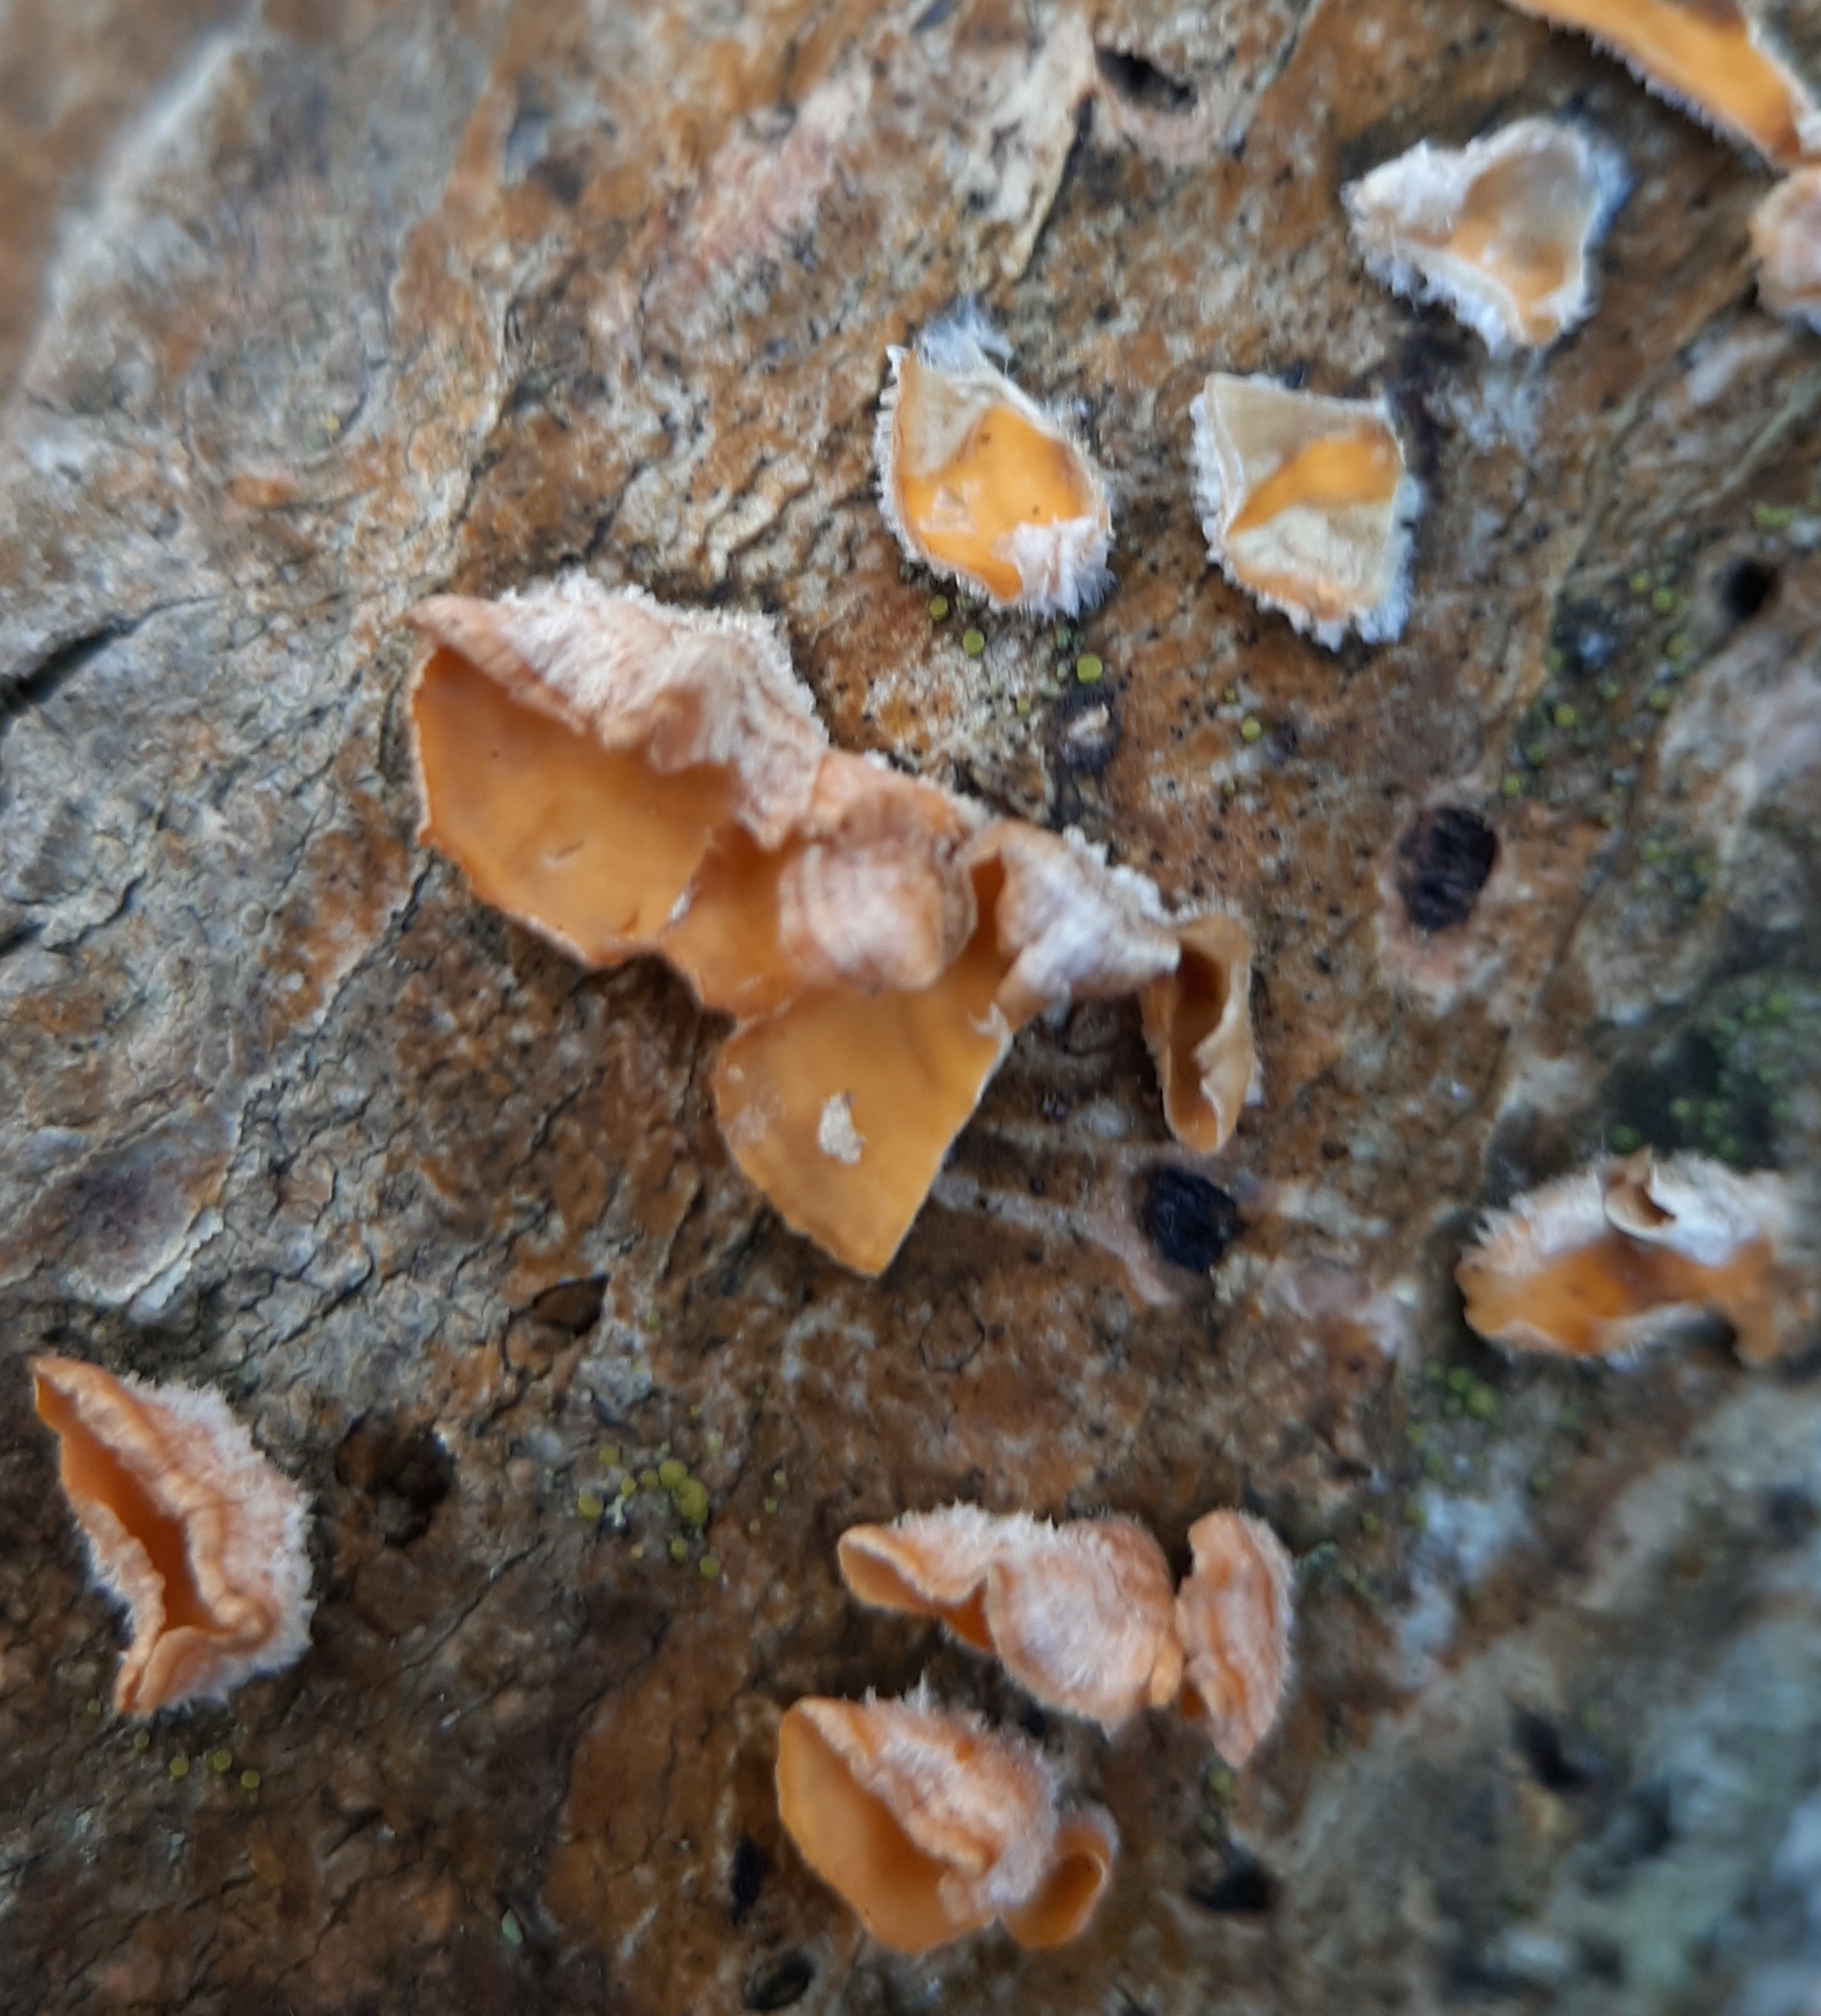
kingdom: Fungi
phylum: Basidiomycota
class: Agaricomycetes
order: Russulales
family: Stereaceae
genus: Stereum
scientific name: Stereum complicatum
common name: Crowded parchment
